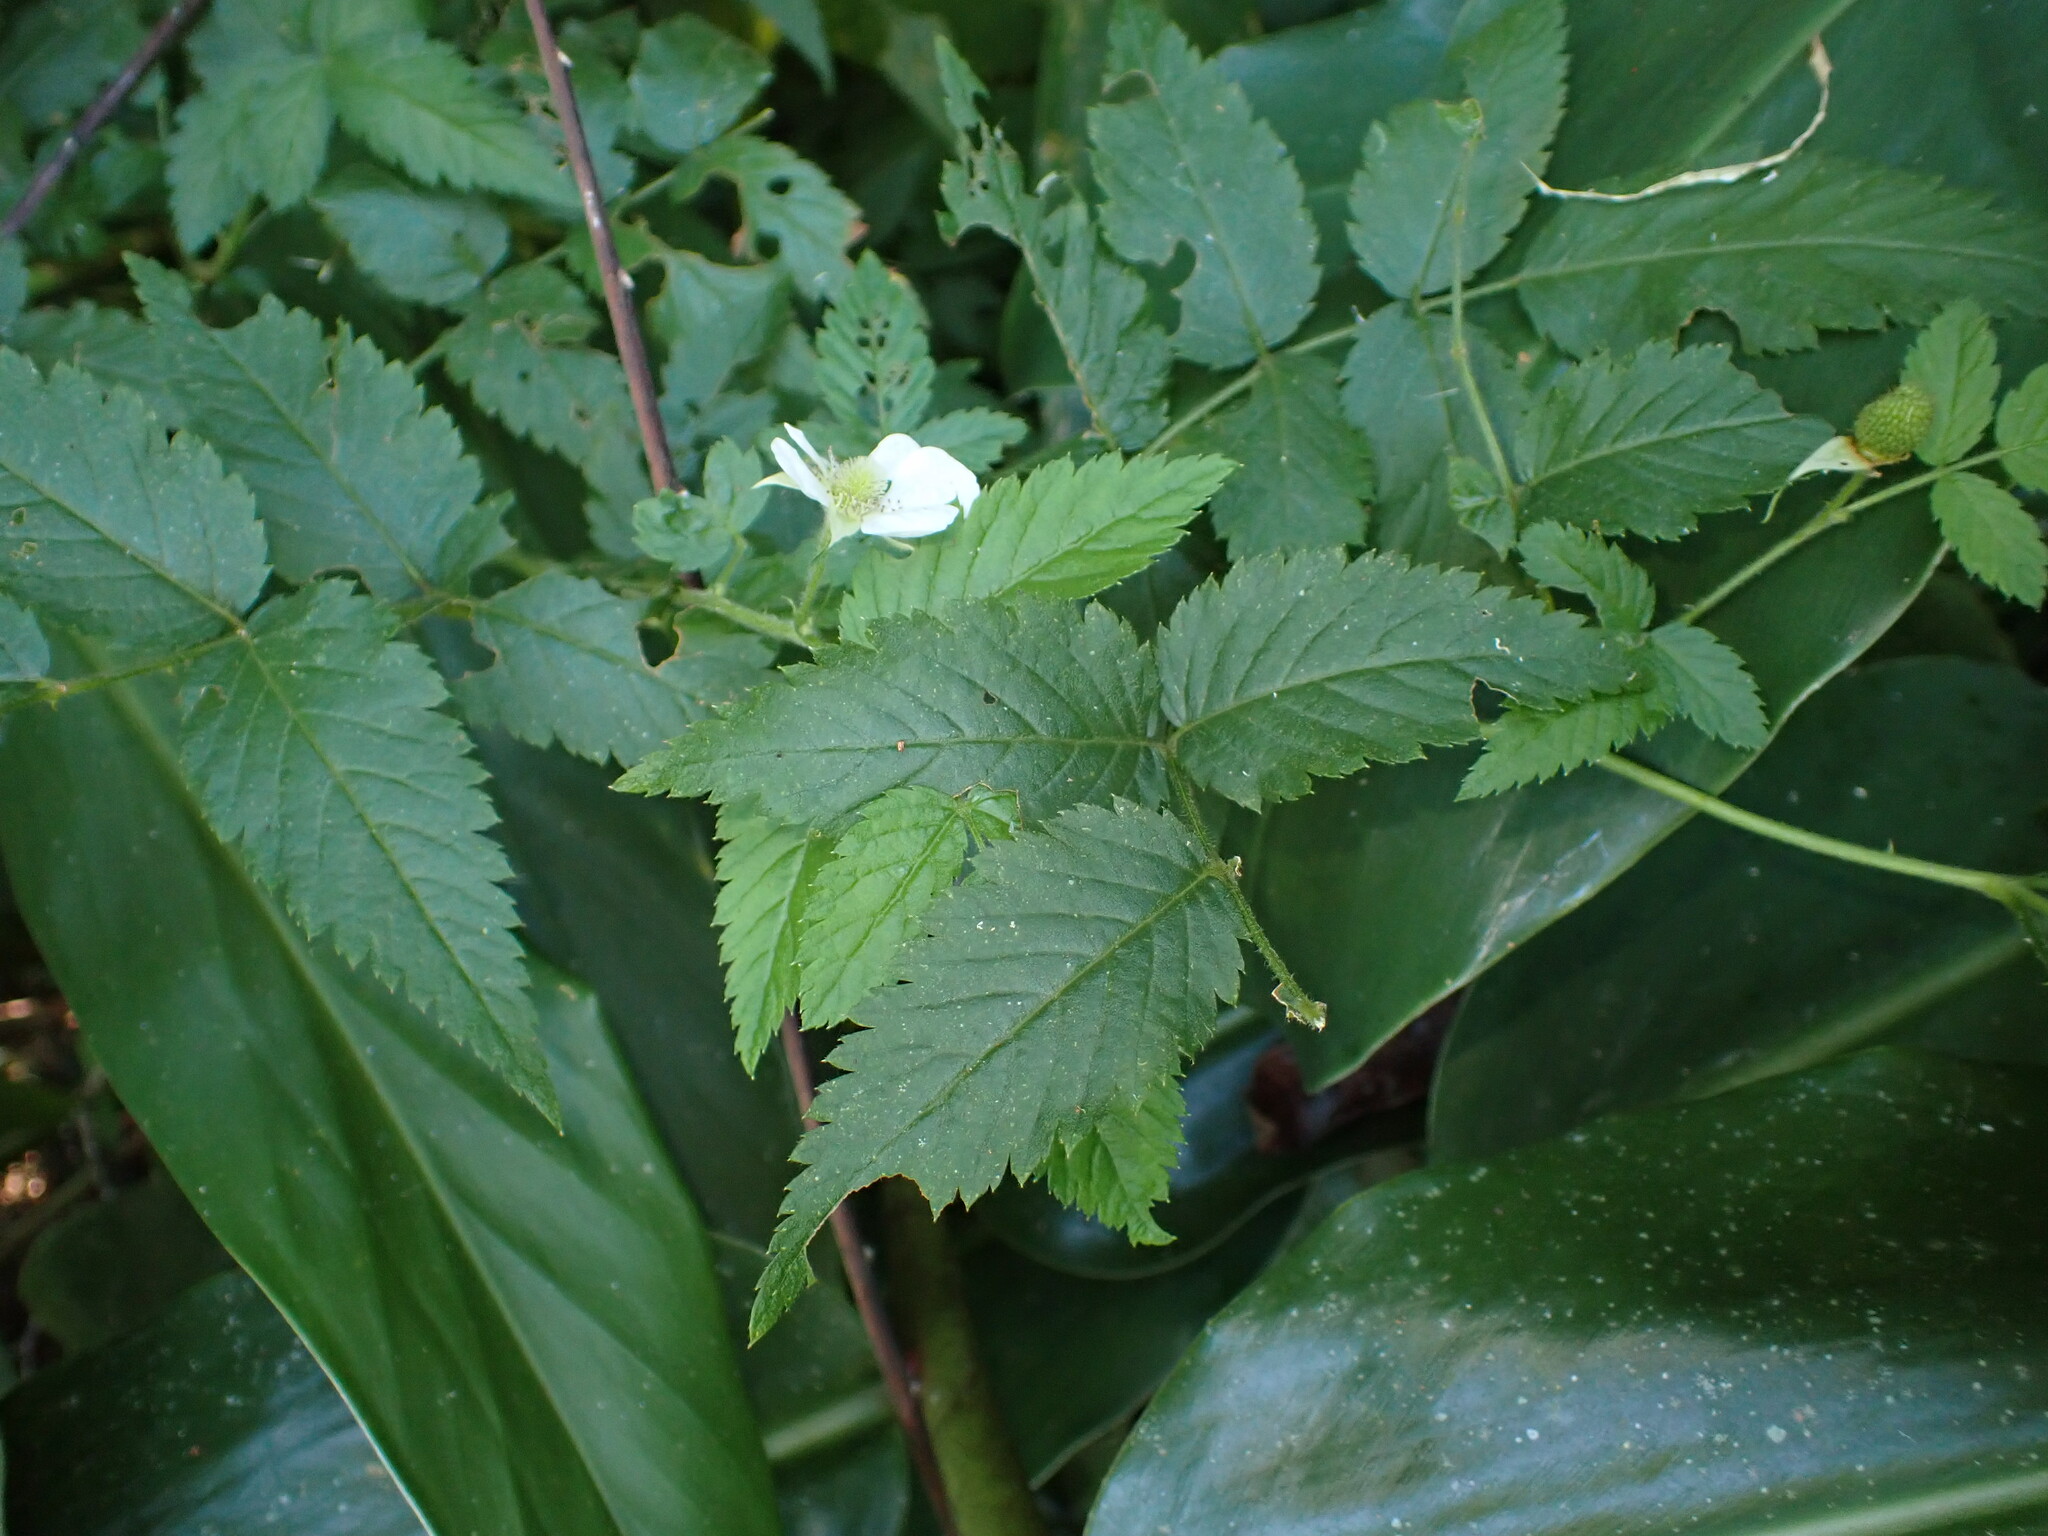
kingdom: Plantae
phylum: Tracheophyta
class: Magnoliopsida
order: Rosales
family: Rosaceae
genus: Rubus
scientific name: Rubus rosifolius
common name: Roseleaf raspberry
